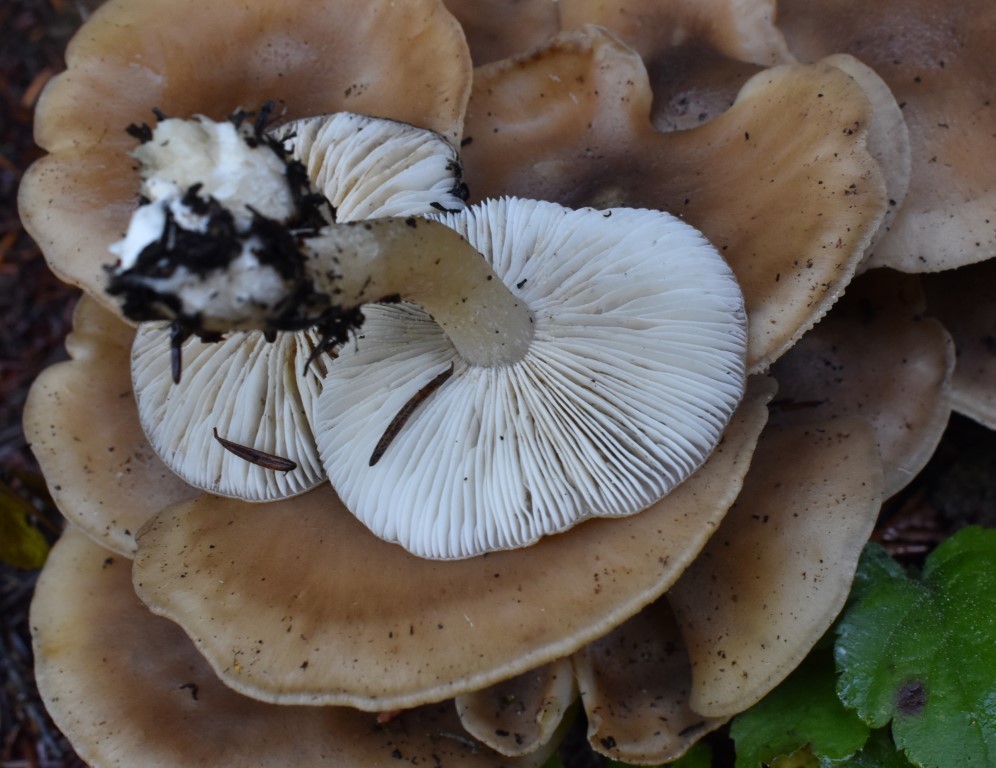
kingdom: Fungi
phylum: Basidiomycota
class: Agaricomycetes
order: Agaricales
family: Lyophyllaceae
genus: Lyophyllum
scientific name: Lyophyllum decastes
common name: Clustered domecap
